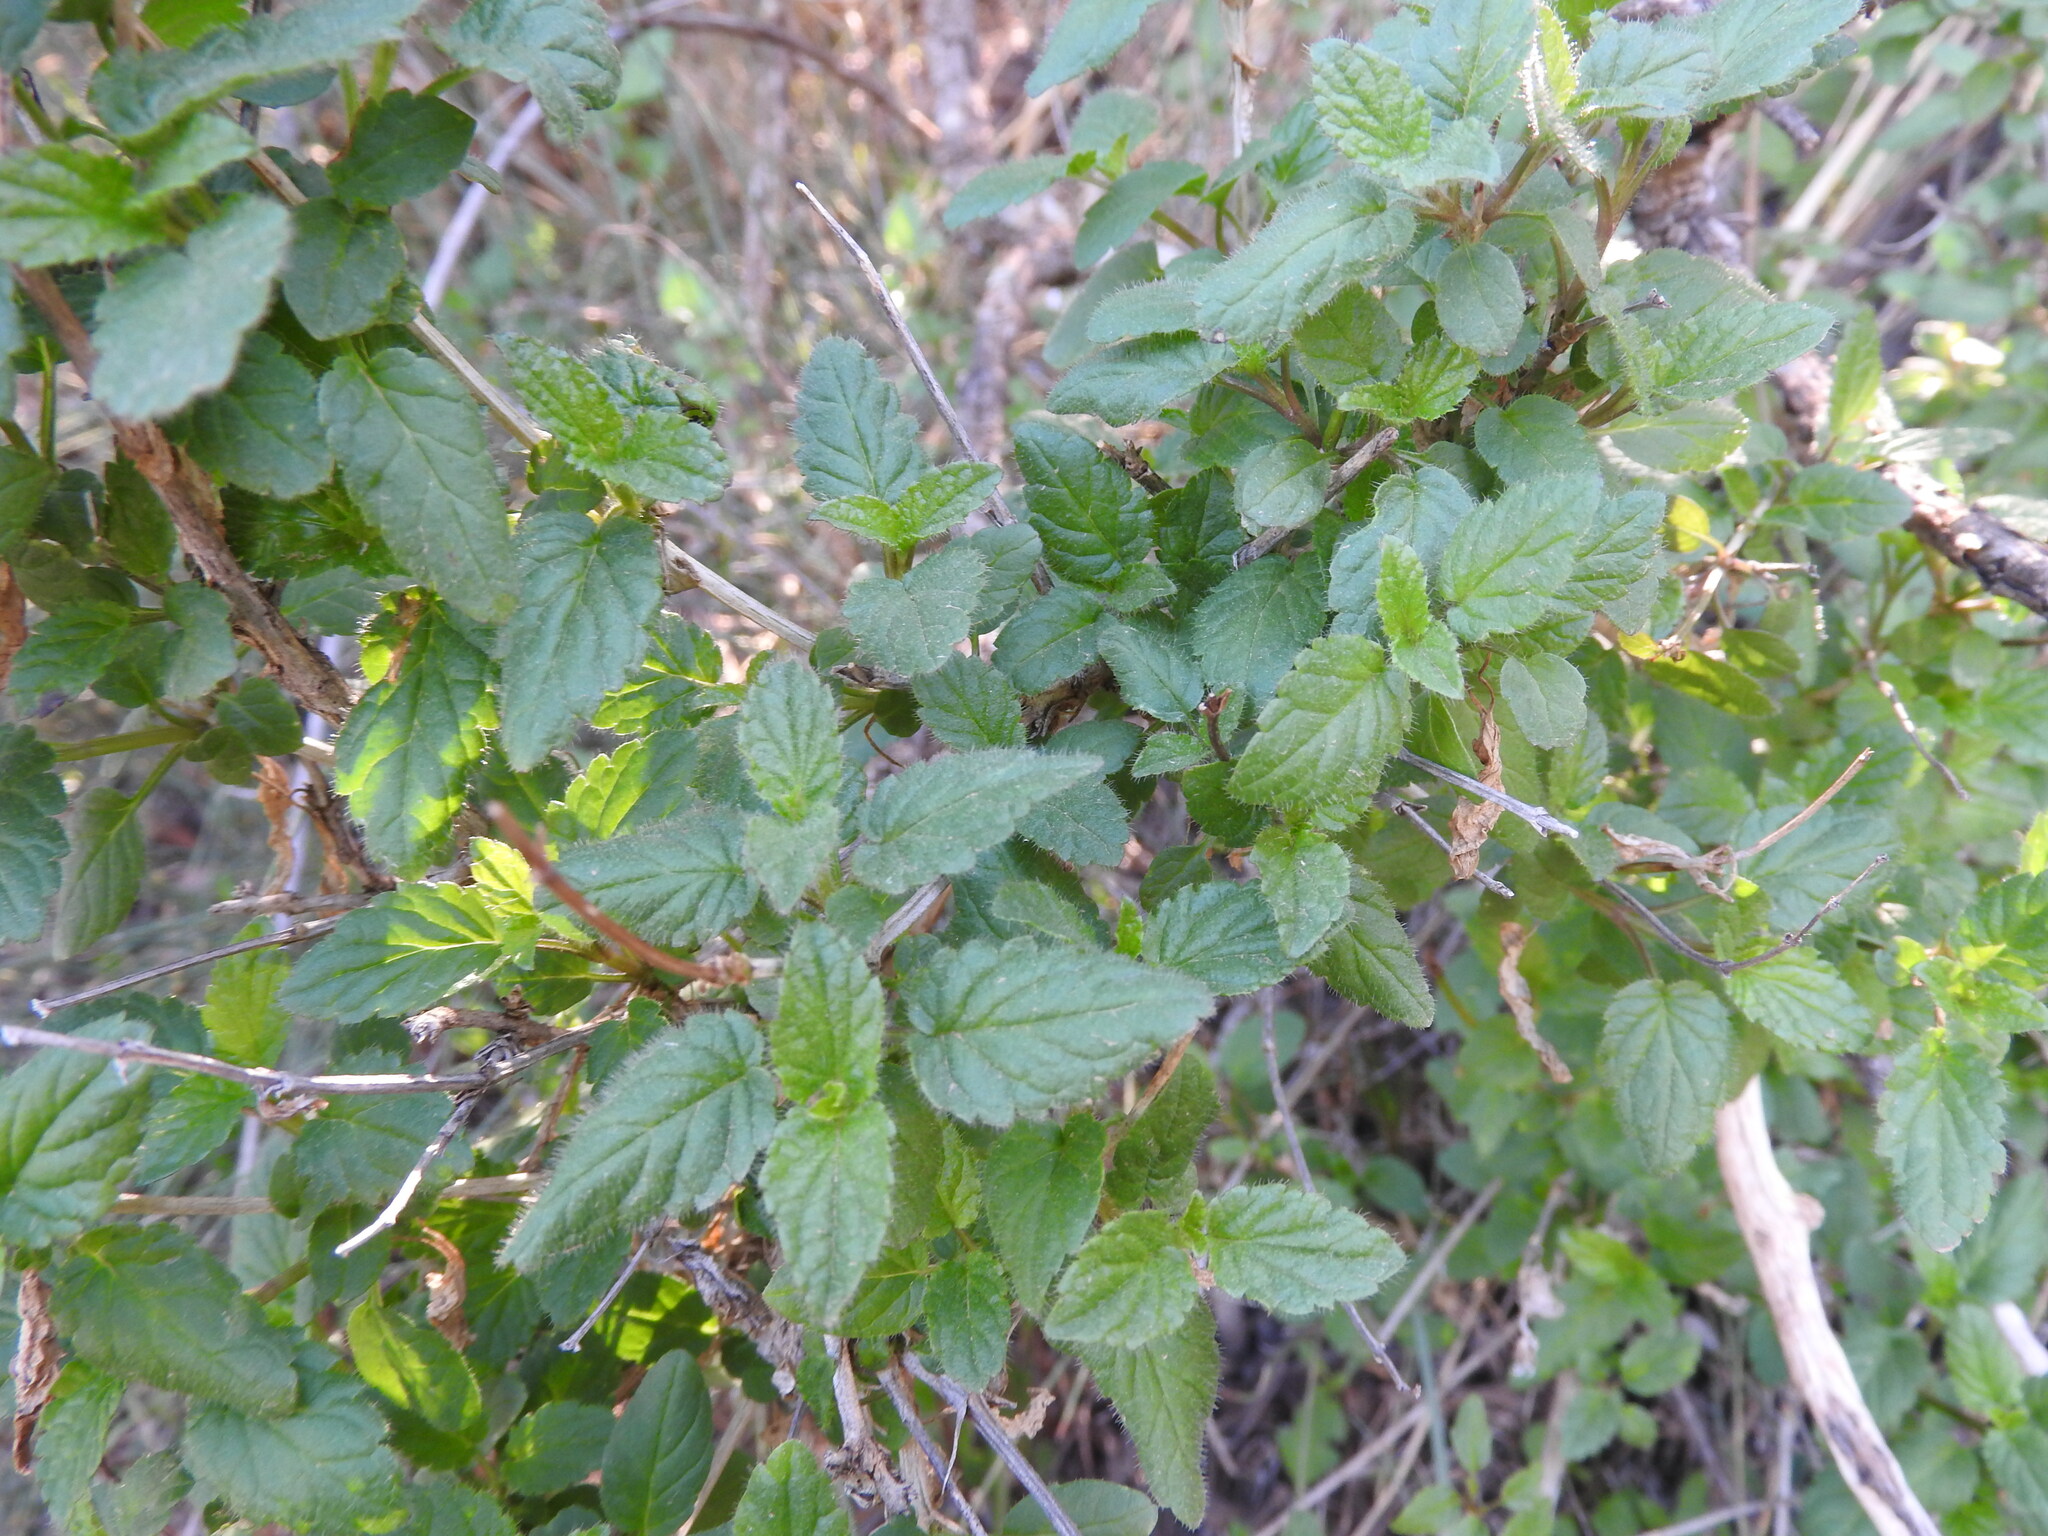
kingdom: Plantae
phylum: Tracheophyta
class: Magnoliopsida
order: Lamiales
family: Lamiaceae
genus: Prasium
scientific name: Prasium majus
